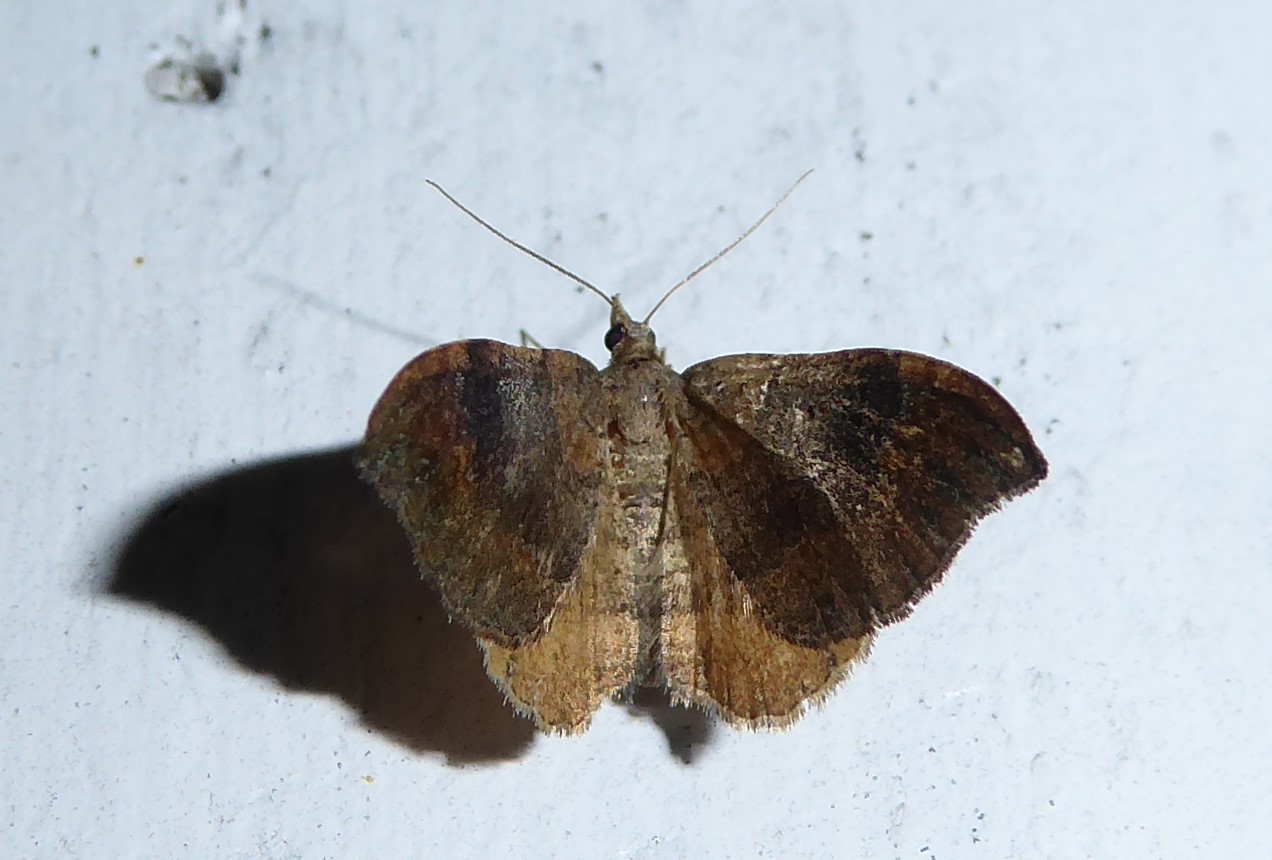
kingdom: Animalia
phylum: Arthropoda
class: Insecta
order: Lepidoptera
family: Geometridae
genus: Homodotis
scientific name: Homodotis megaspilata
